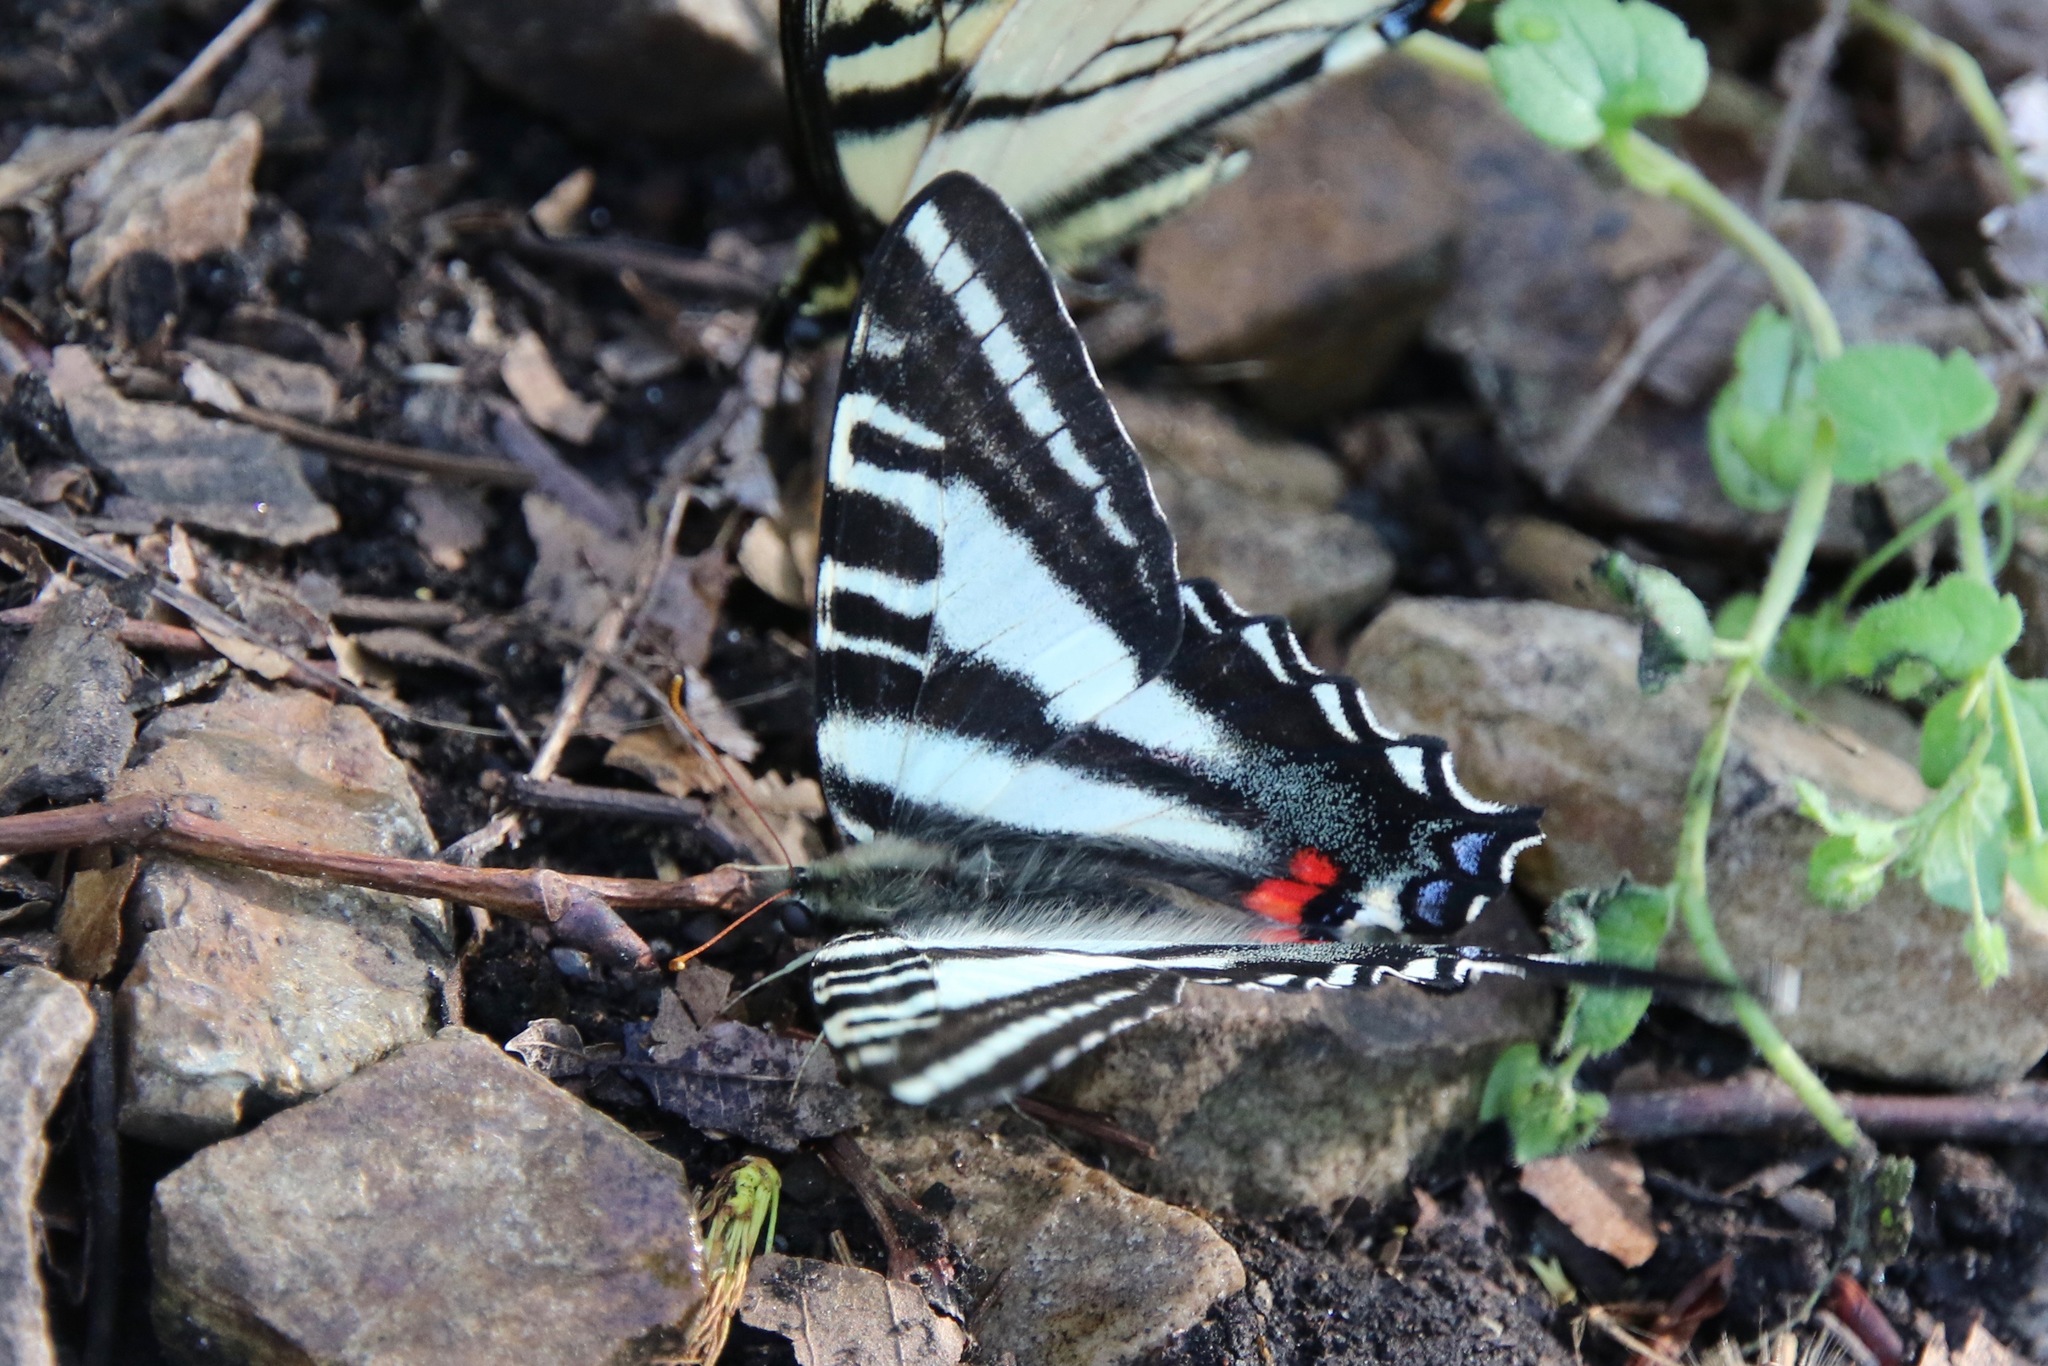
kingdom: Animalia
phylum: Arthropoda
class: Insecta
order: Lepidoptera
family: Papilionidae
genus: Protographium
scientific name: Protographium marcellus
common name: Zebra swallowtail
